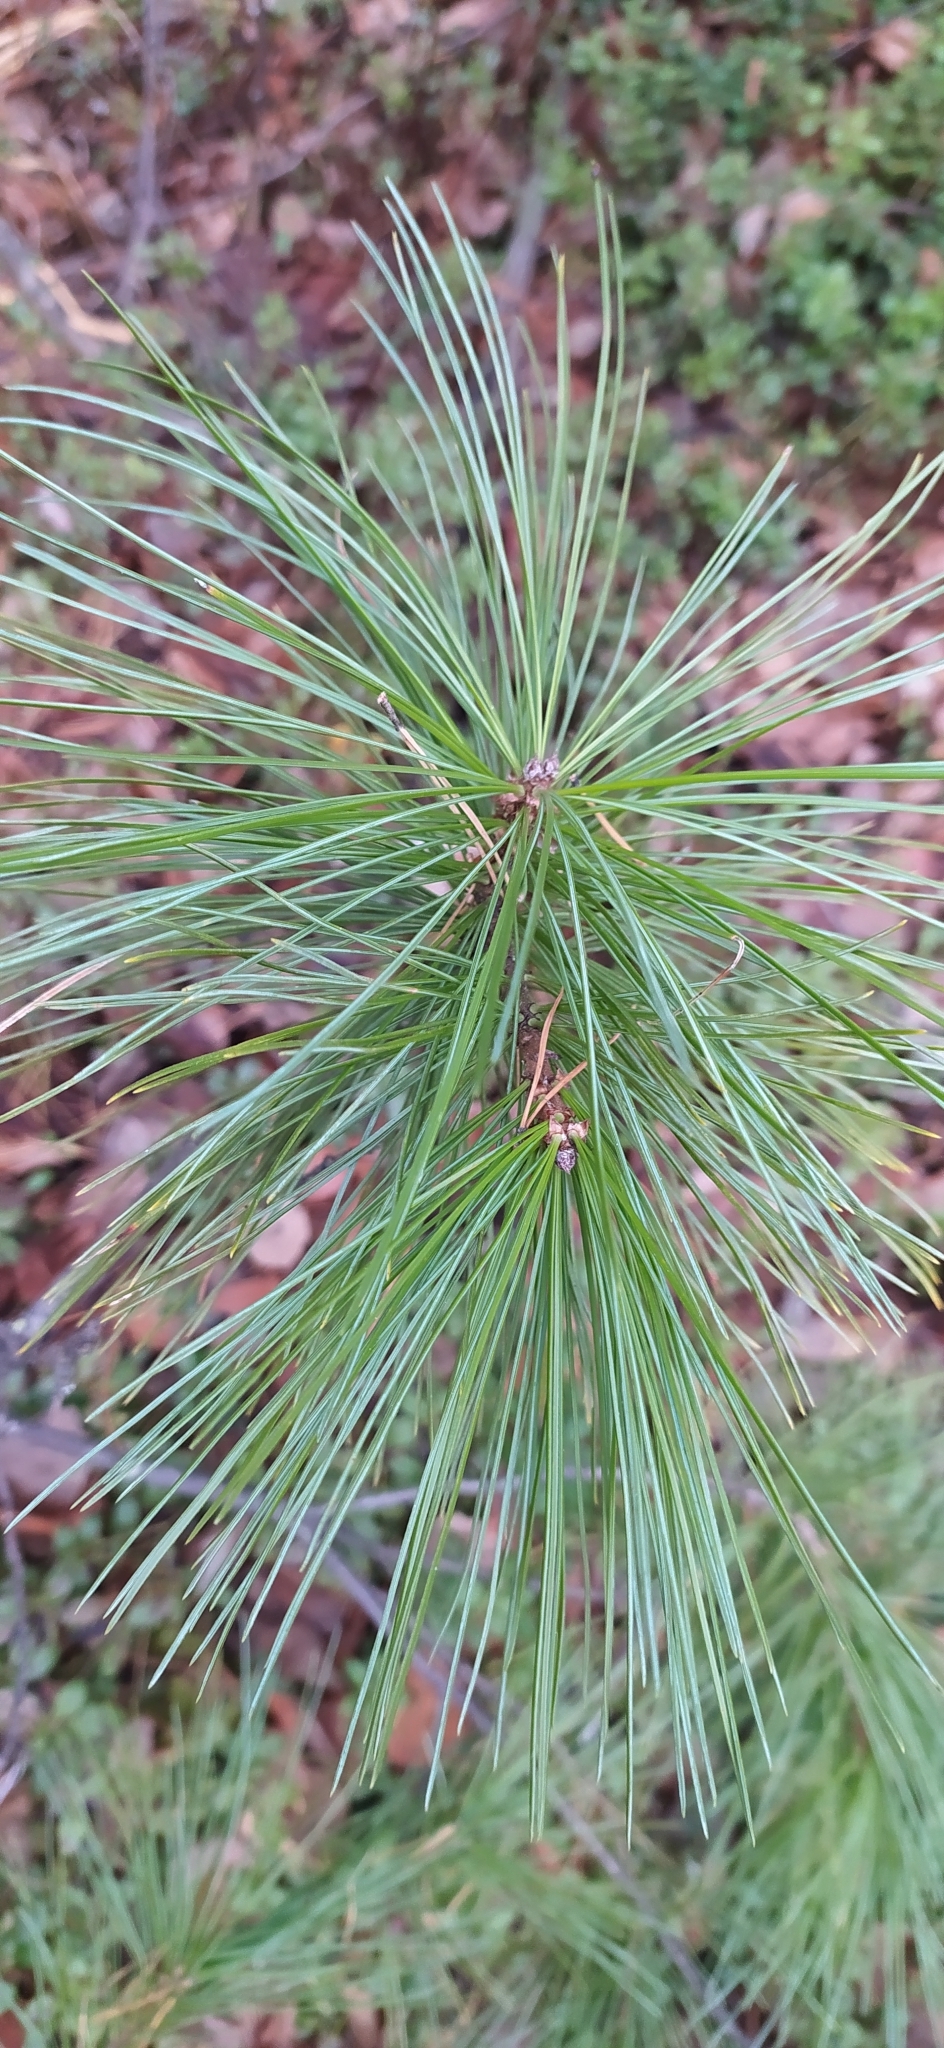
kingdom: Plantae
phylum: Tracheophyta
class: Pinopsida
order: Pinales
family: Pinaceae
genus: Pinus
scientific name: Pinus sibirica
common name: Siberian pine
